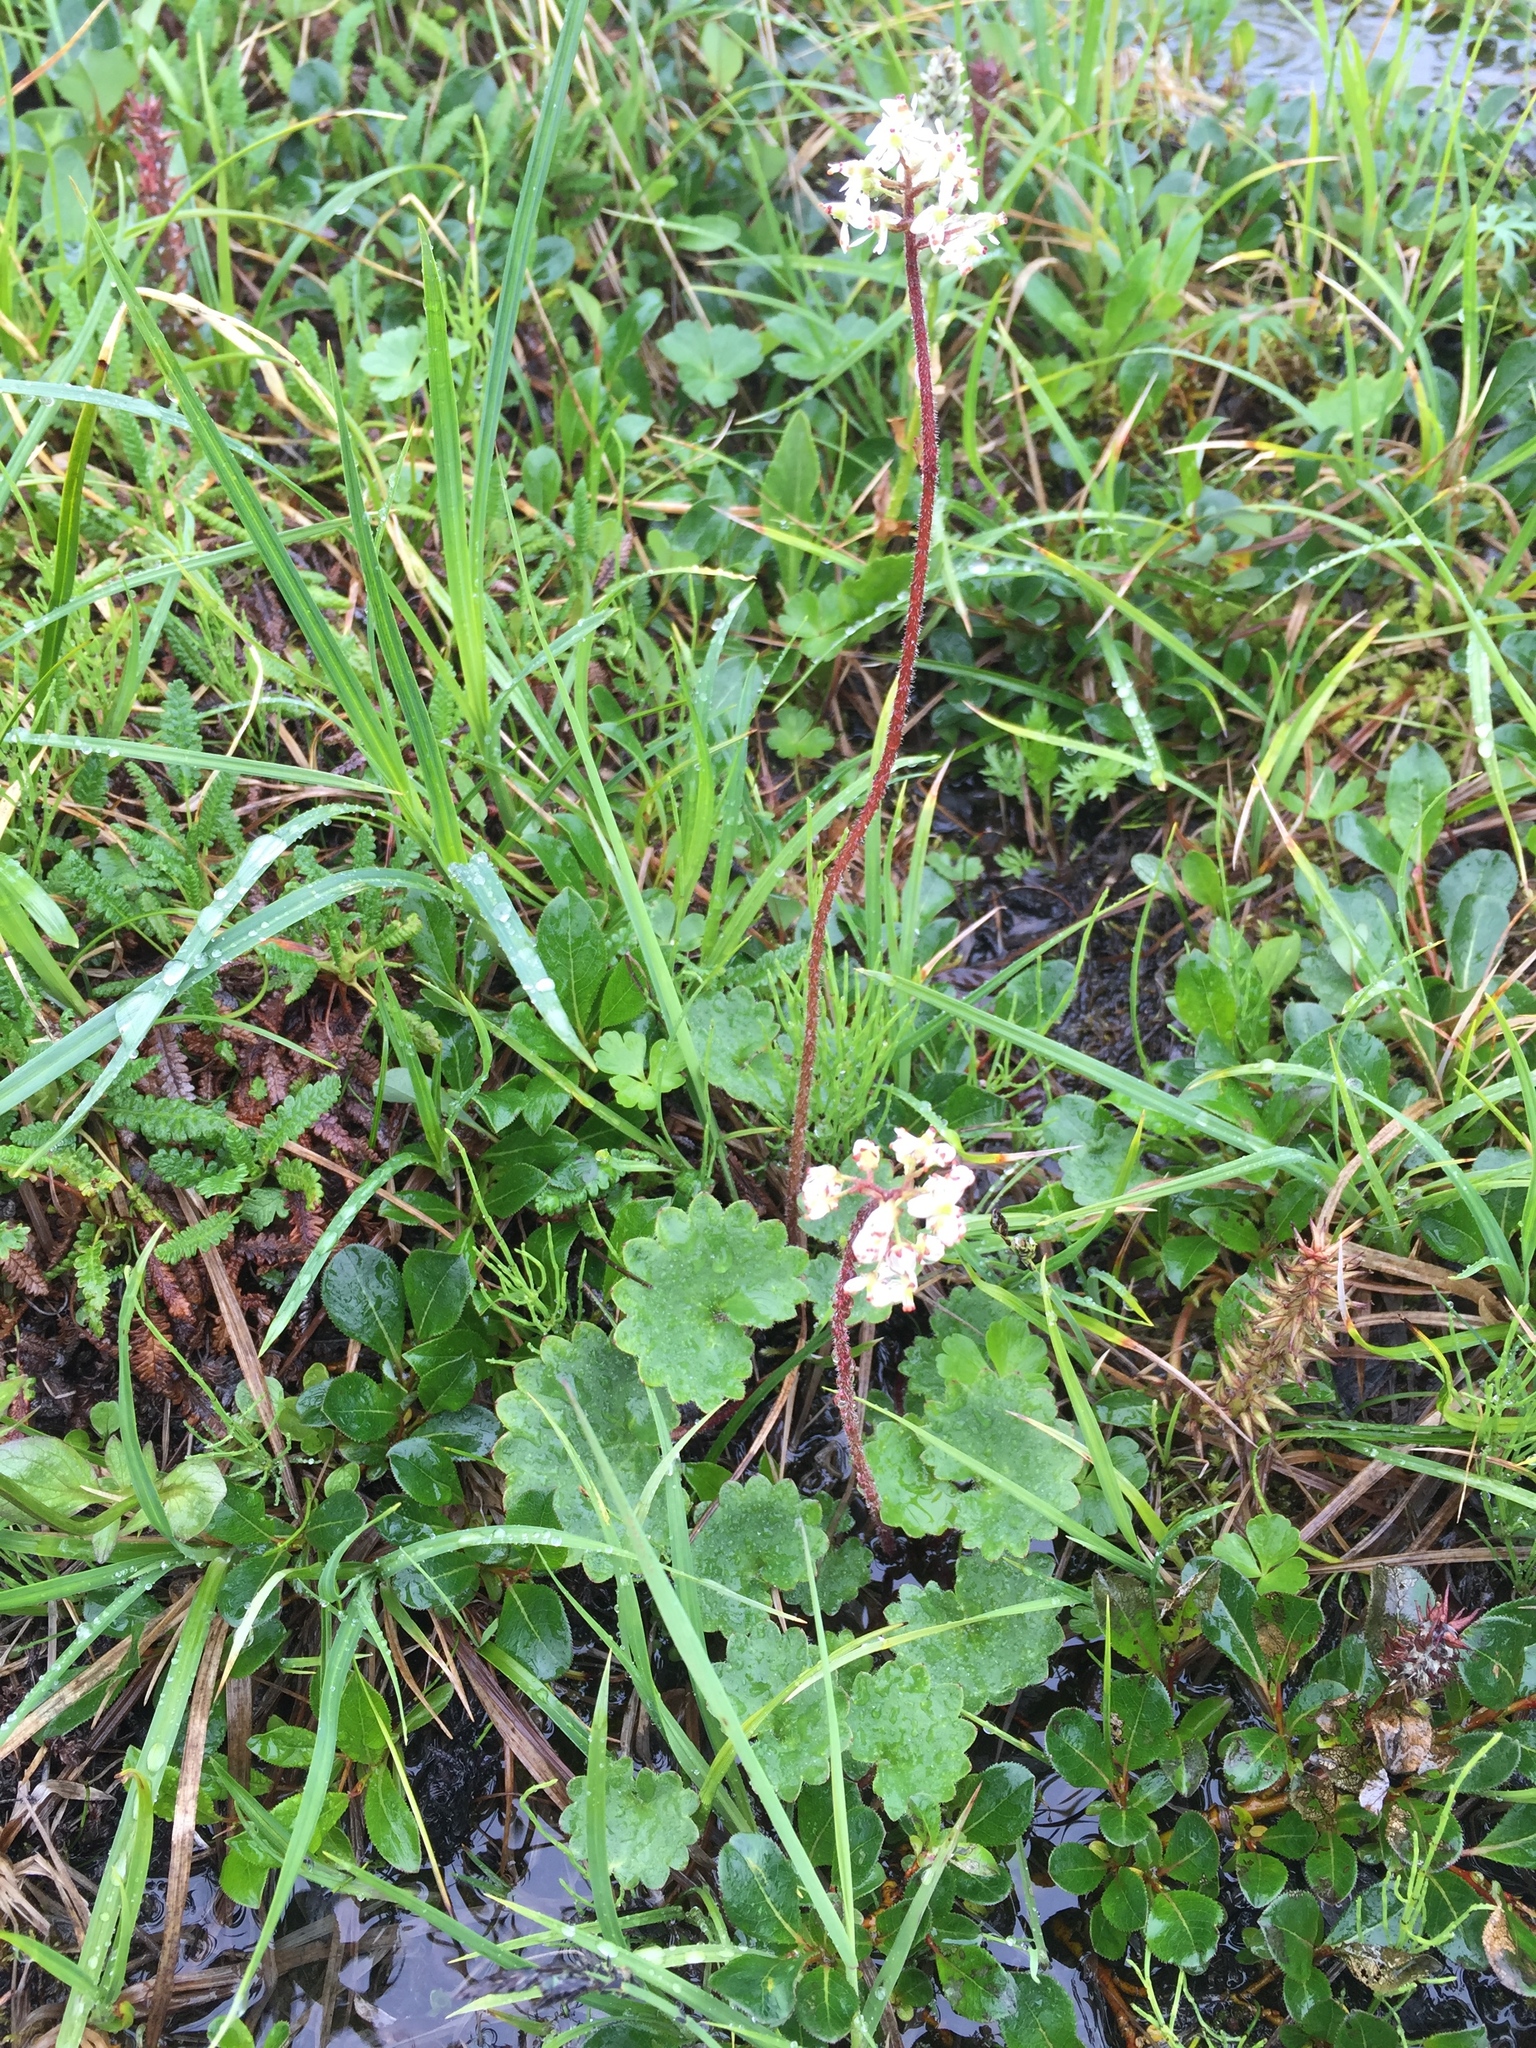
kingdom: Plantae
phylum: Tracheophyta
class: Magnoliopsida
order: Saxifragales
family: Saxifragaceae
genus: Micranthes
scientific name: Micranthes nelsoniana
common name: Nelson's saxifrage
